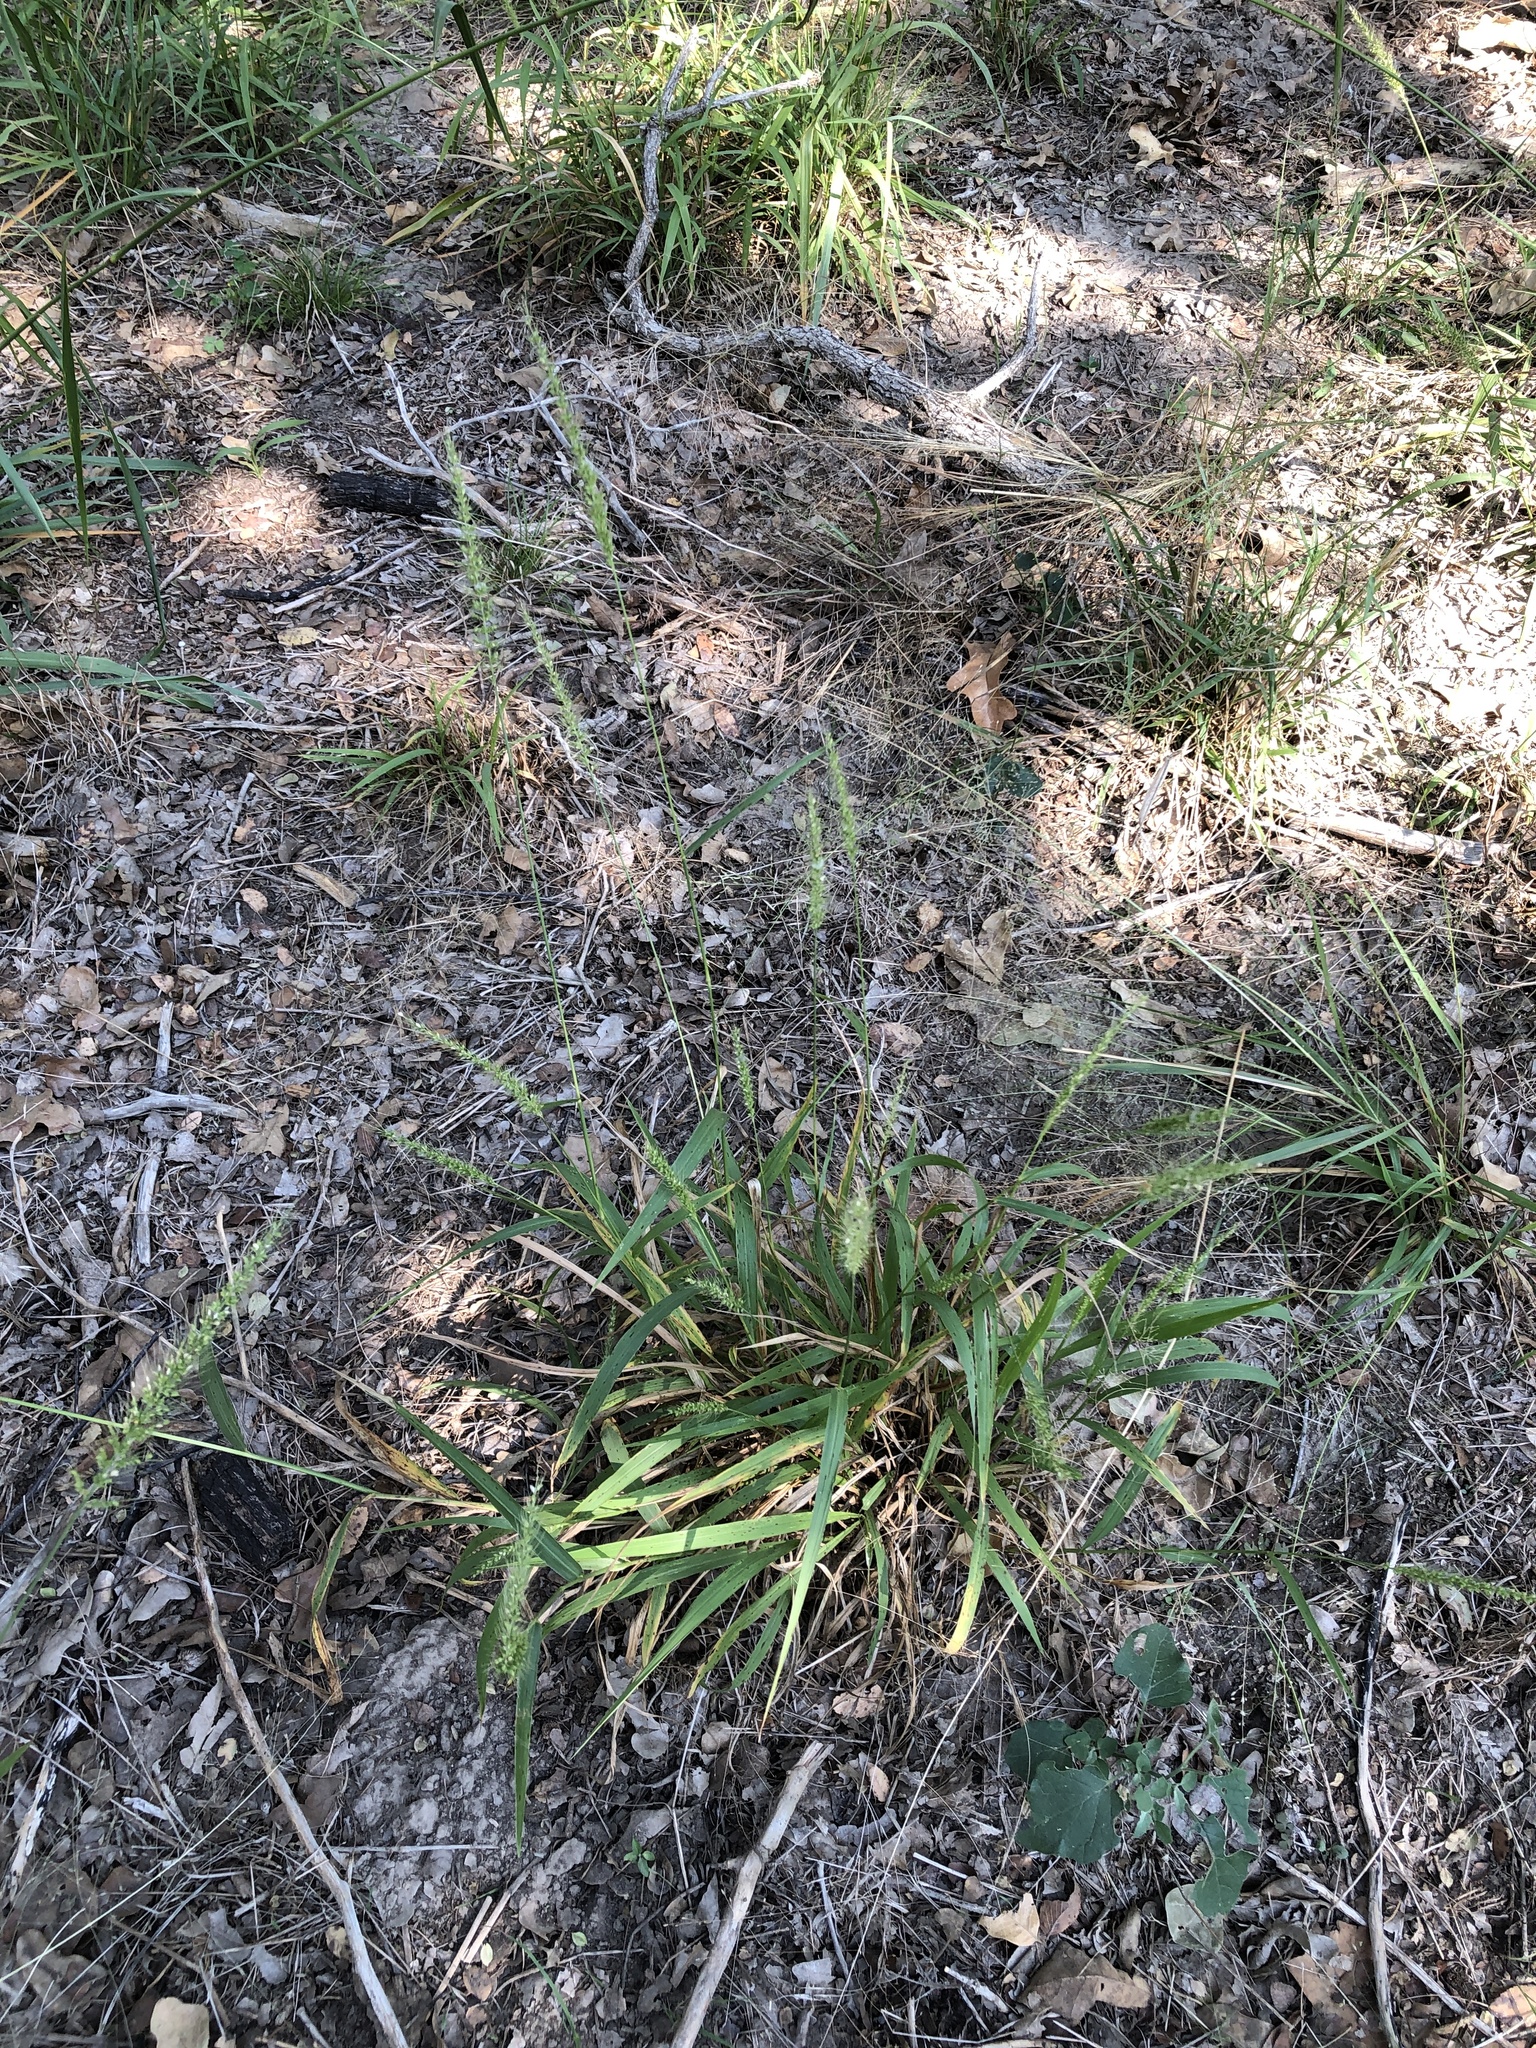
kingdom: Plantae
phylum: Tracheophyta
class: Liliopsida
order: Poales
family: Poaceae
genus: Setaria
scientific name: Setaria scheelei
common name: Southwestern bristle grass
